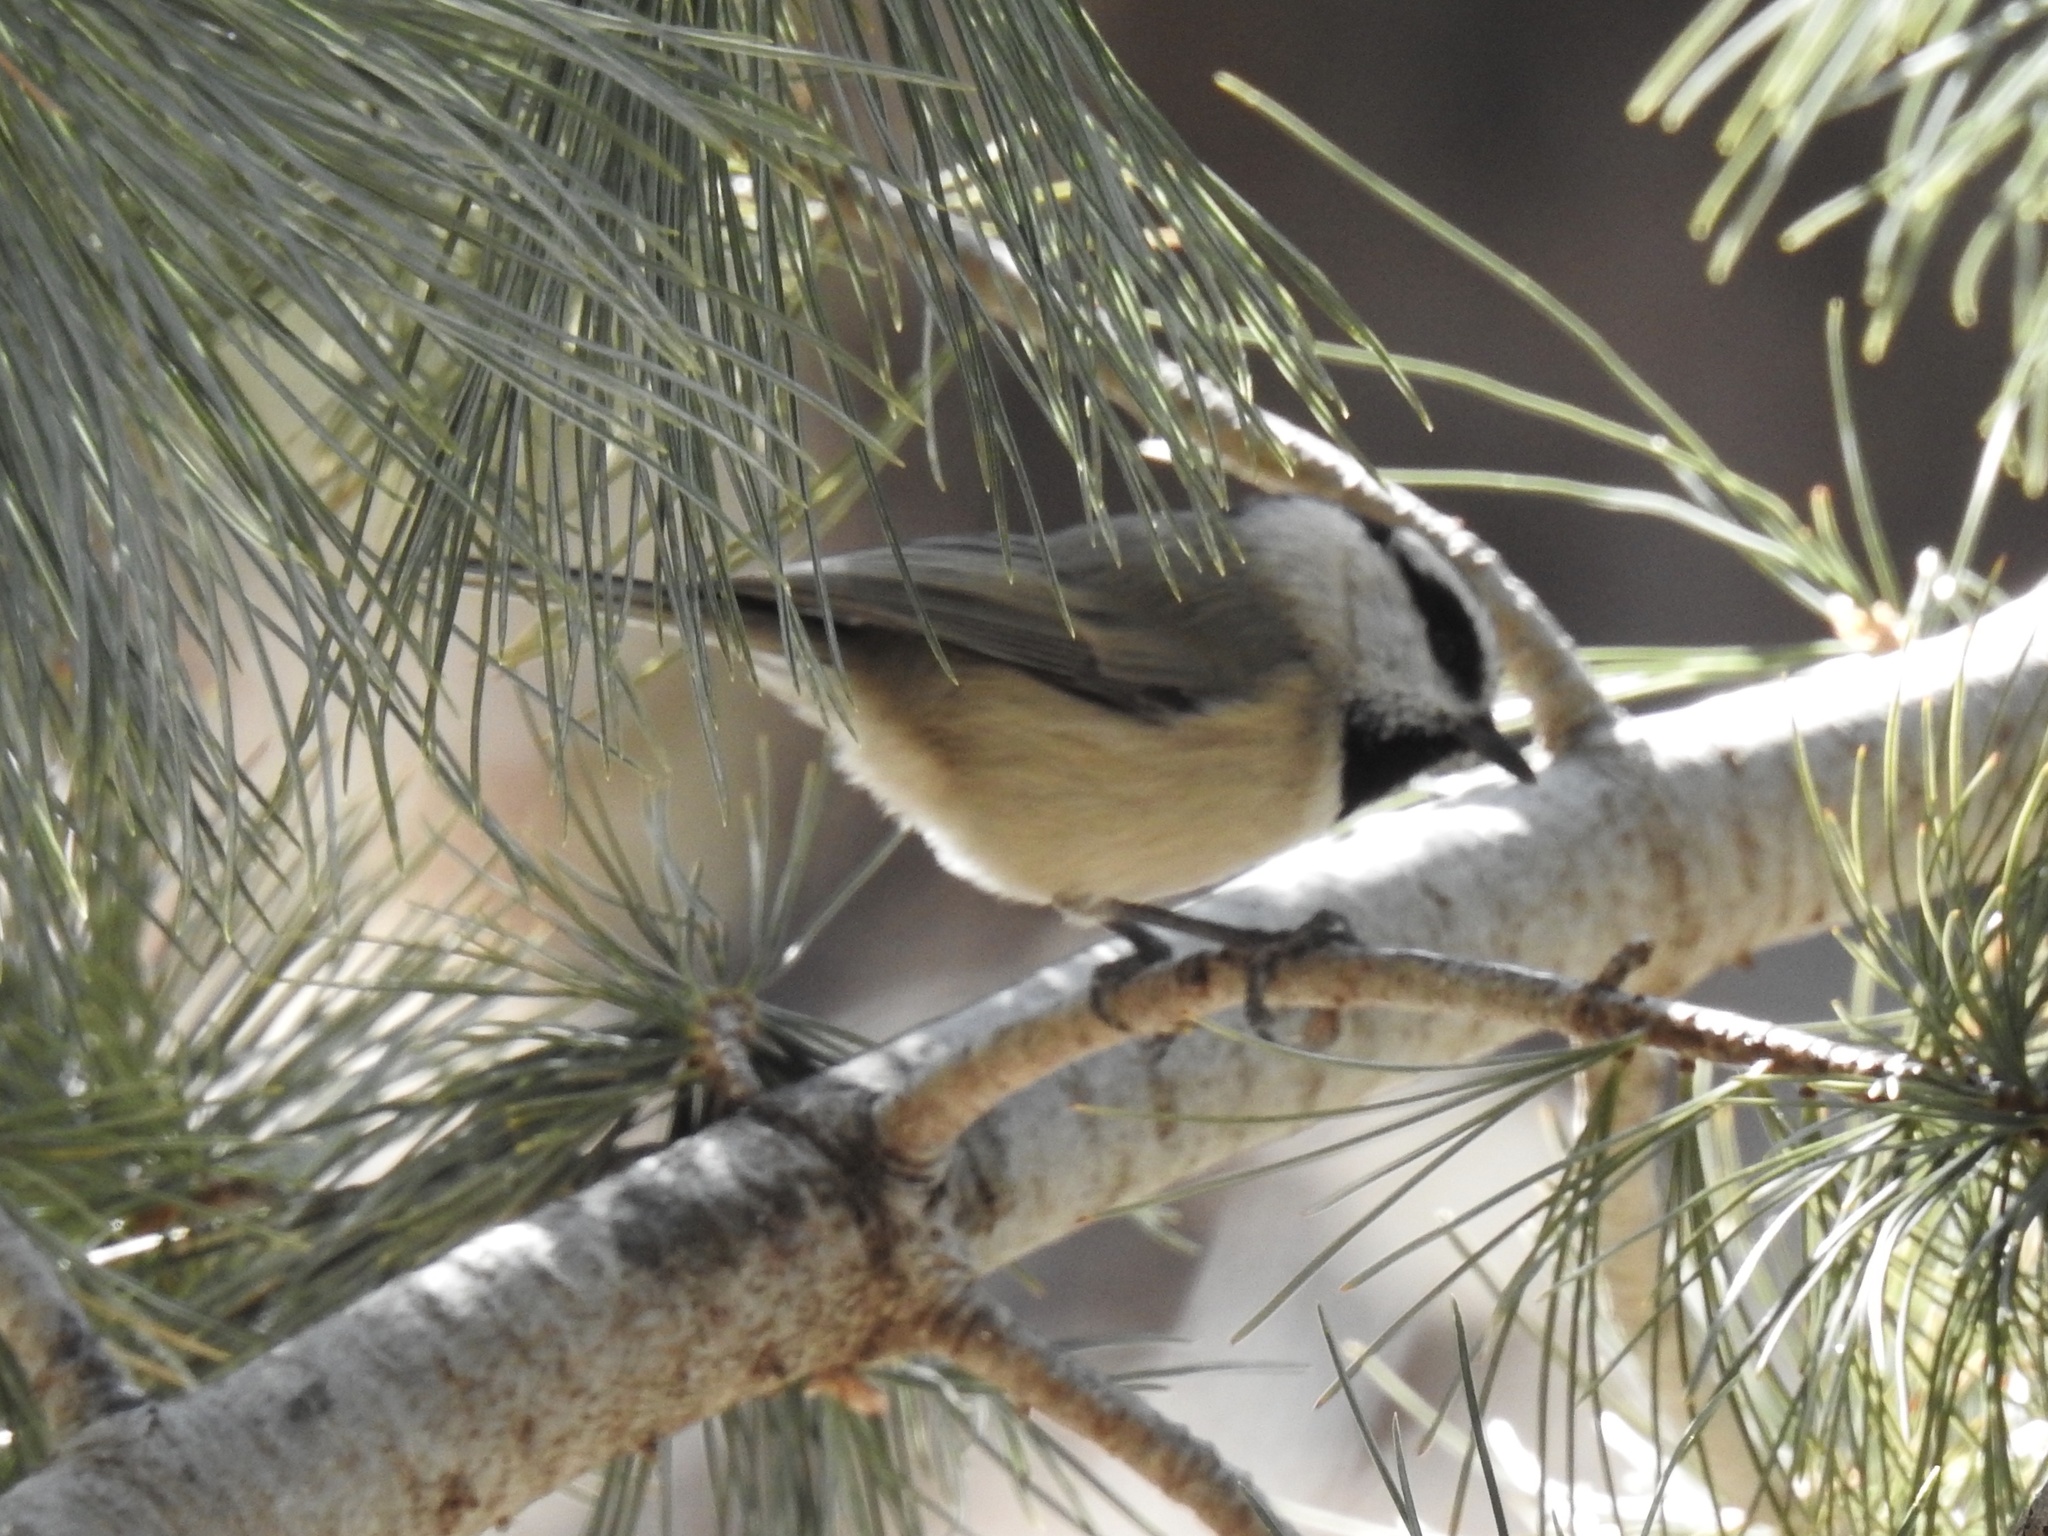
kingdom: Animalia
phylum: Chordata
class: Aves
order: Passeriformes
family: Paridae
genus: Poecile
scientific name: Poecile gambeli
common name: Mountain chickadee
